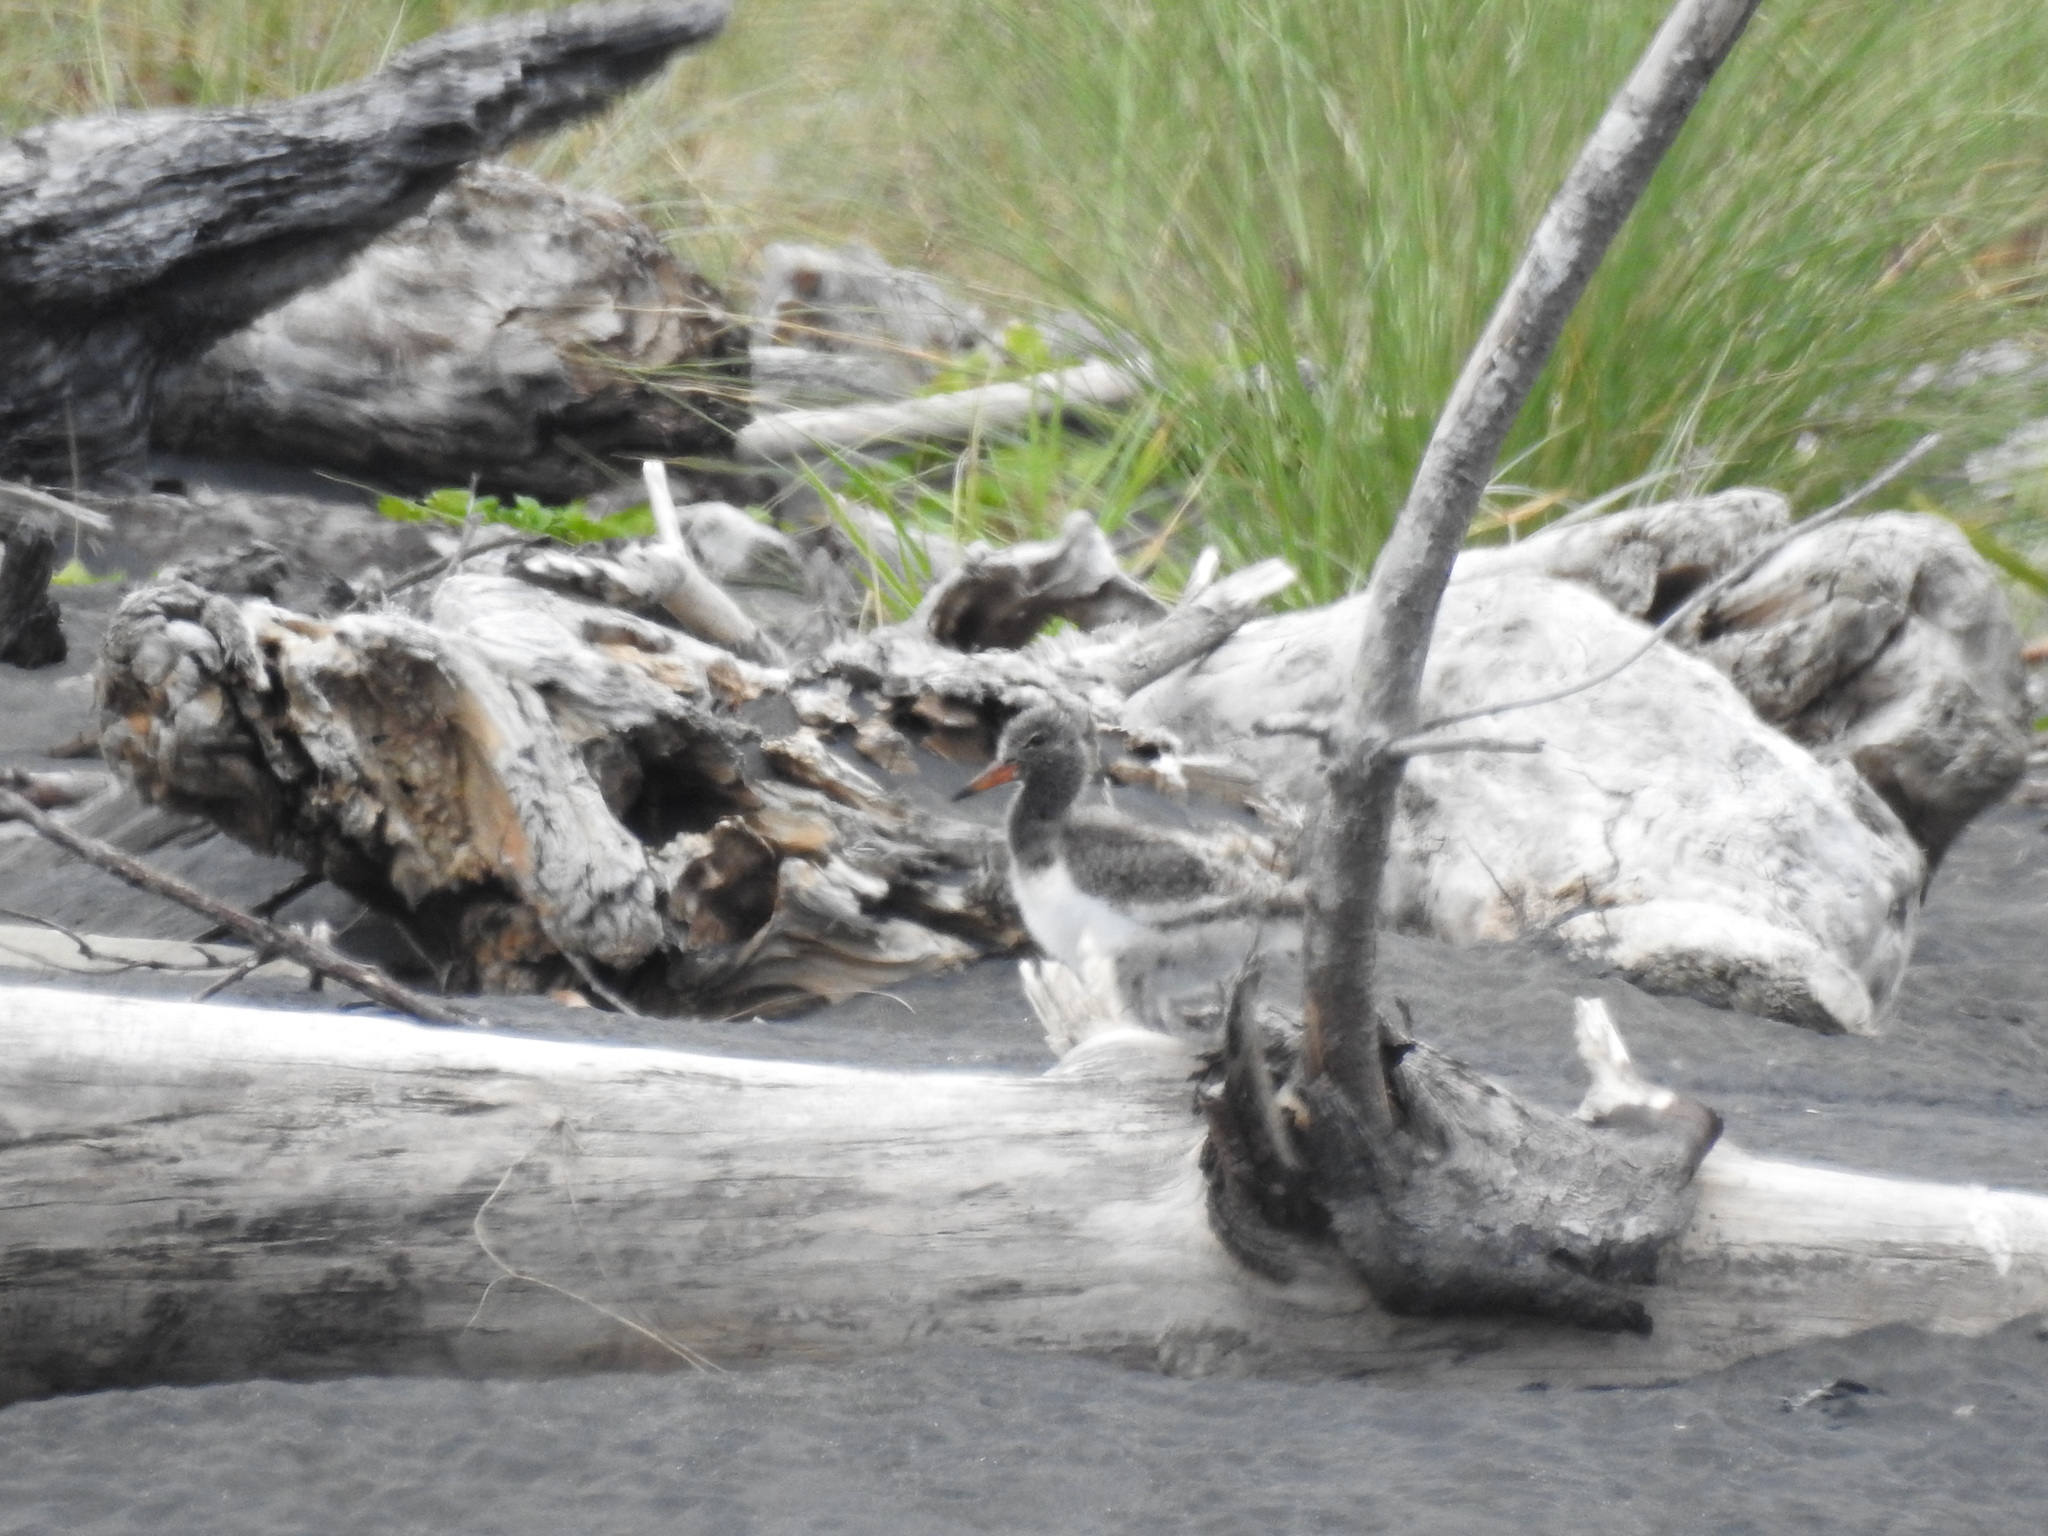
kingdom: Animalia
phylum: Chordata
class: Aves
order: Charadriiformes
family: Haematopodidae
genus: Haematopus
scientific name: Haematopus unicolor
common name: Variable oystercatcher
